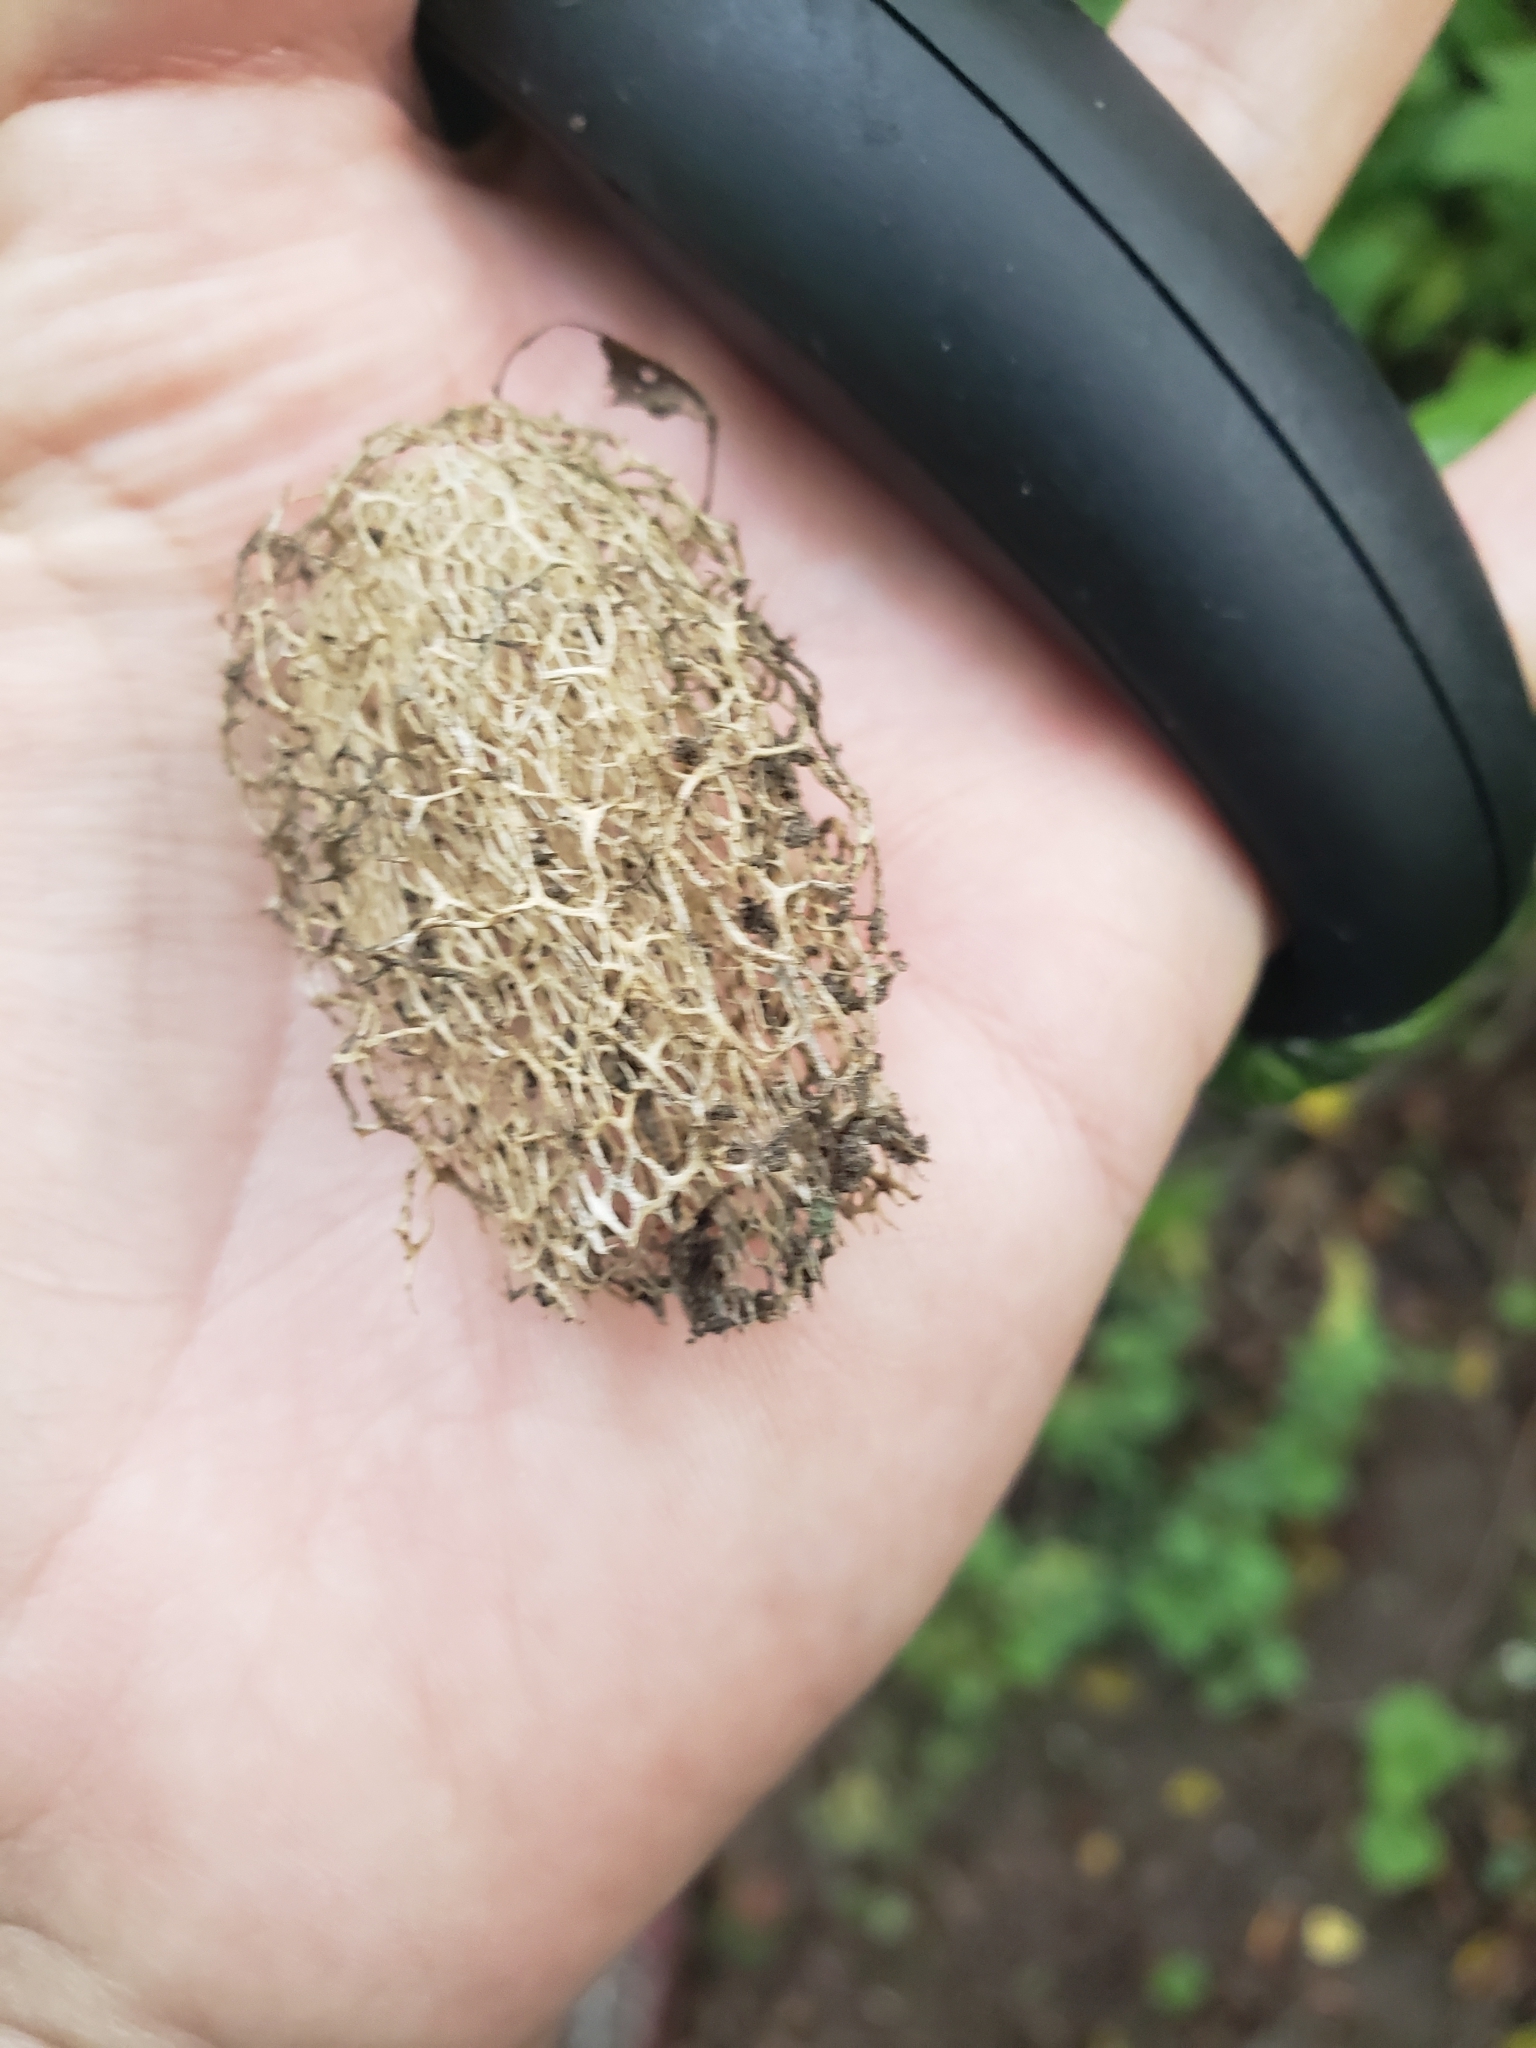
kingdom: Plantae
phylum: Tracheophyta
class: Magnoliopsida
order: Cucurbitales
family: Cucurbitaceae
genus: Echinocystis
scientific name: Echinocystis lobata
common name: Wild cucumber
